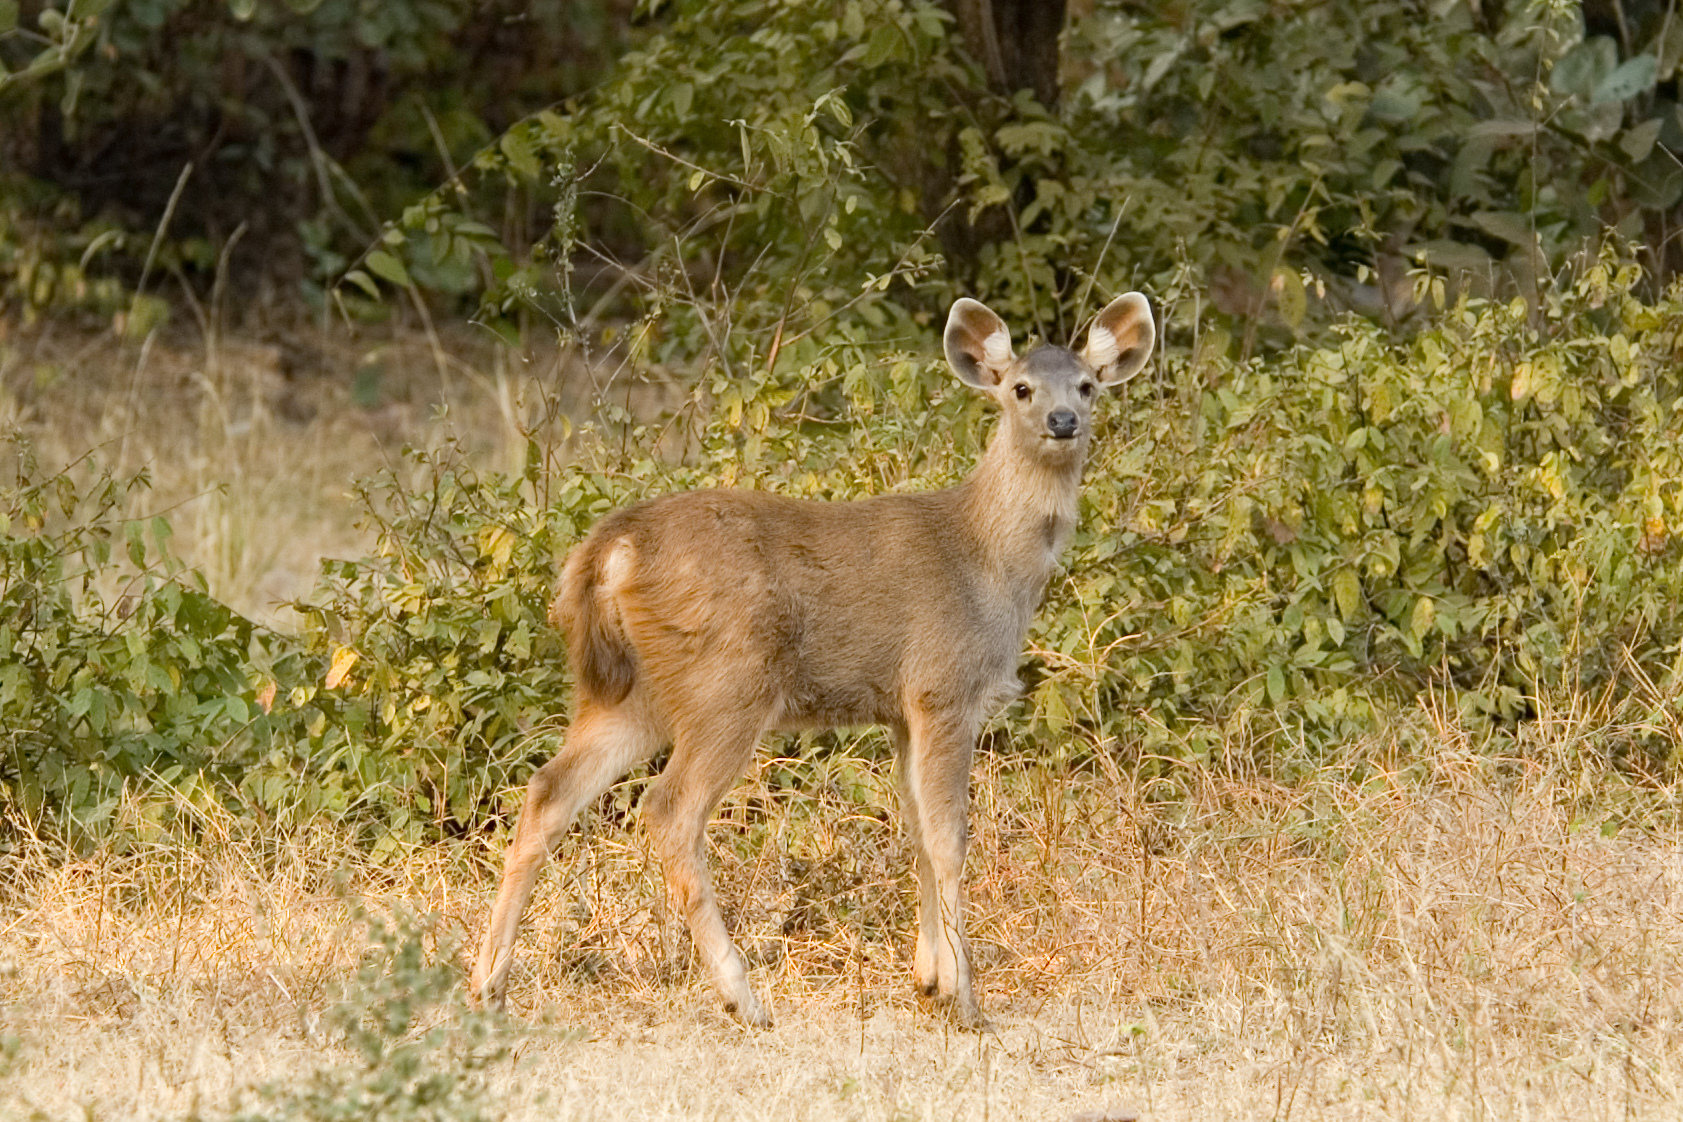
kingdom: Animalia
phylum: Chordata
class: Mammalia
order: Artiodactyla
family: Cervidae
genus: Rusa
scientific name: Rusa unicolor
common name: Sambar
